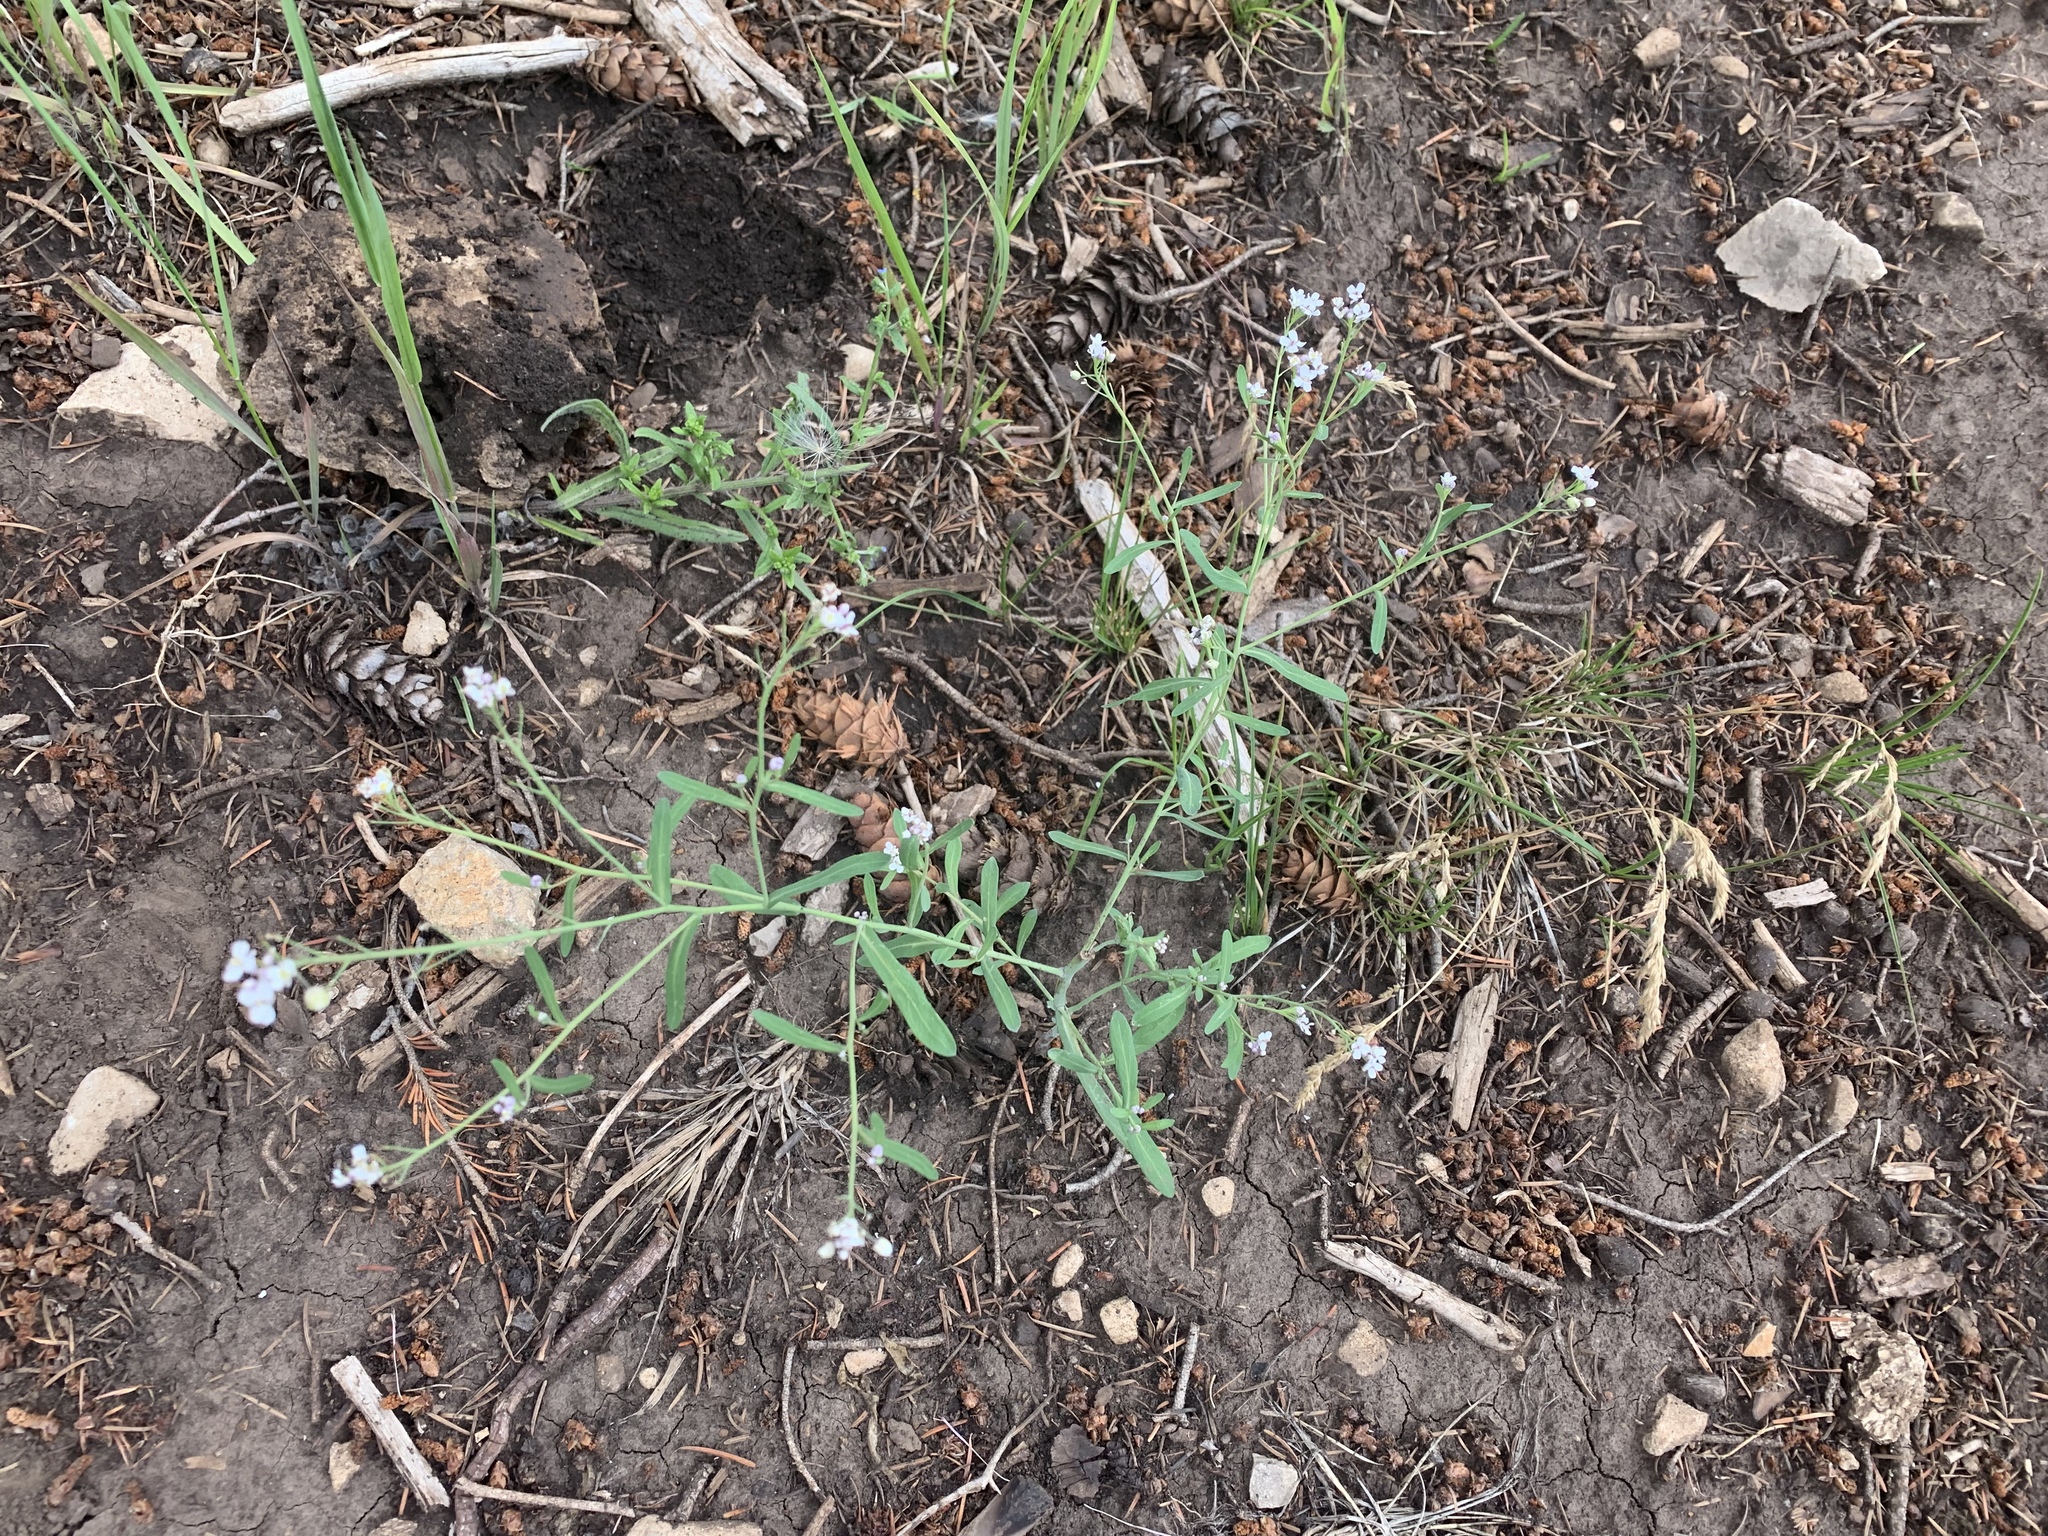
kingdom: Plantae
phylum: Tracheophyta
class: Magnoliopsida
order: Brassicales
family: Brassicaceae
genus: Mostacillastrum
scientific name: Mostacillastrum subauriculatum
